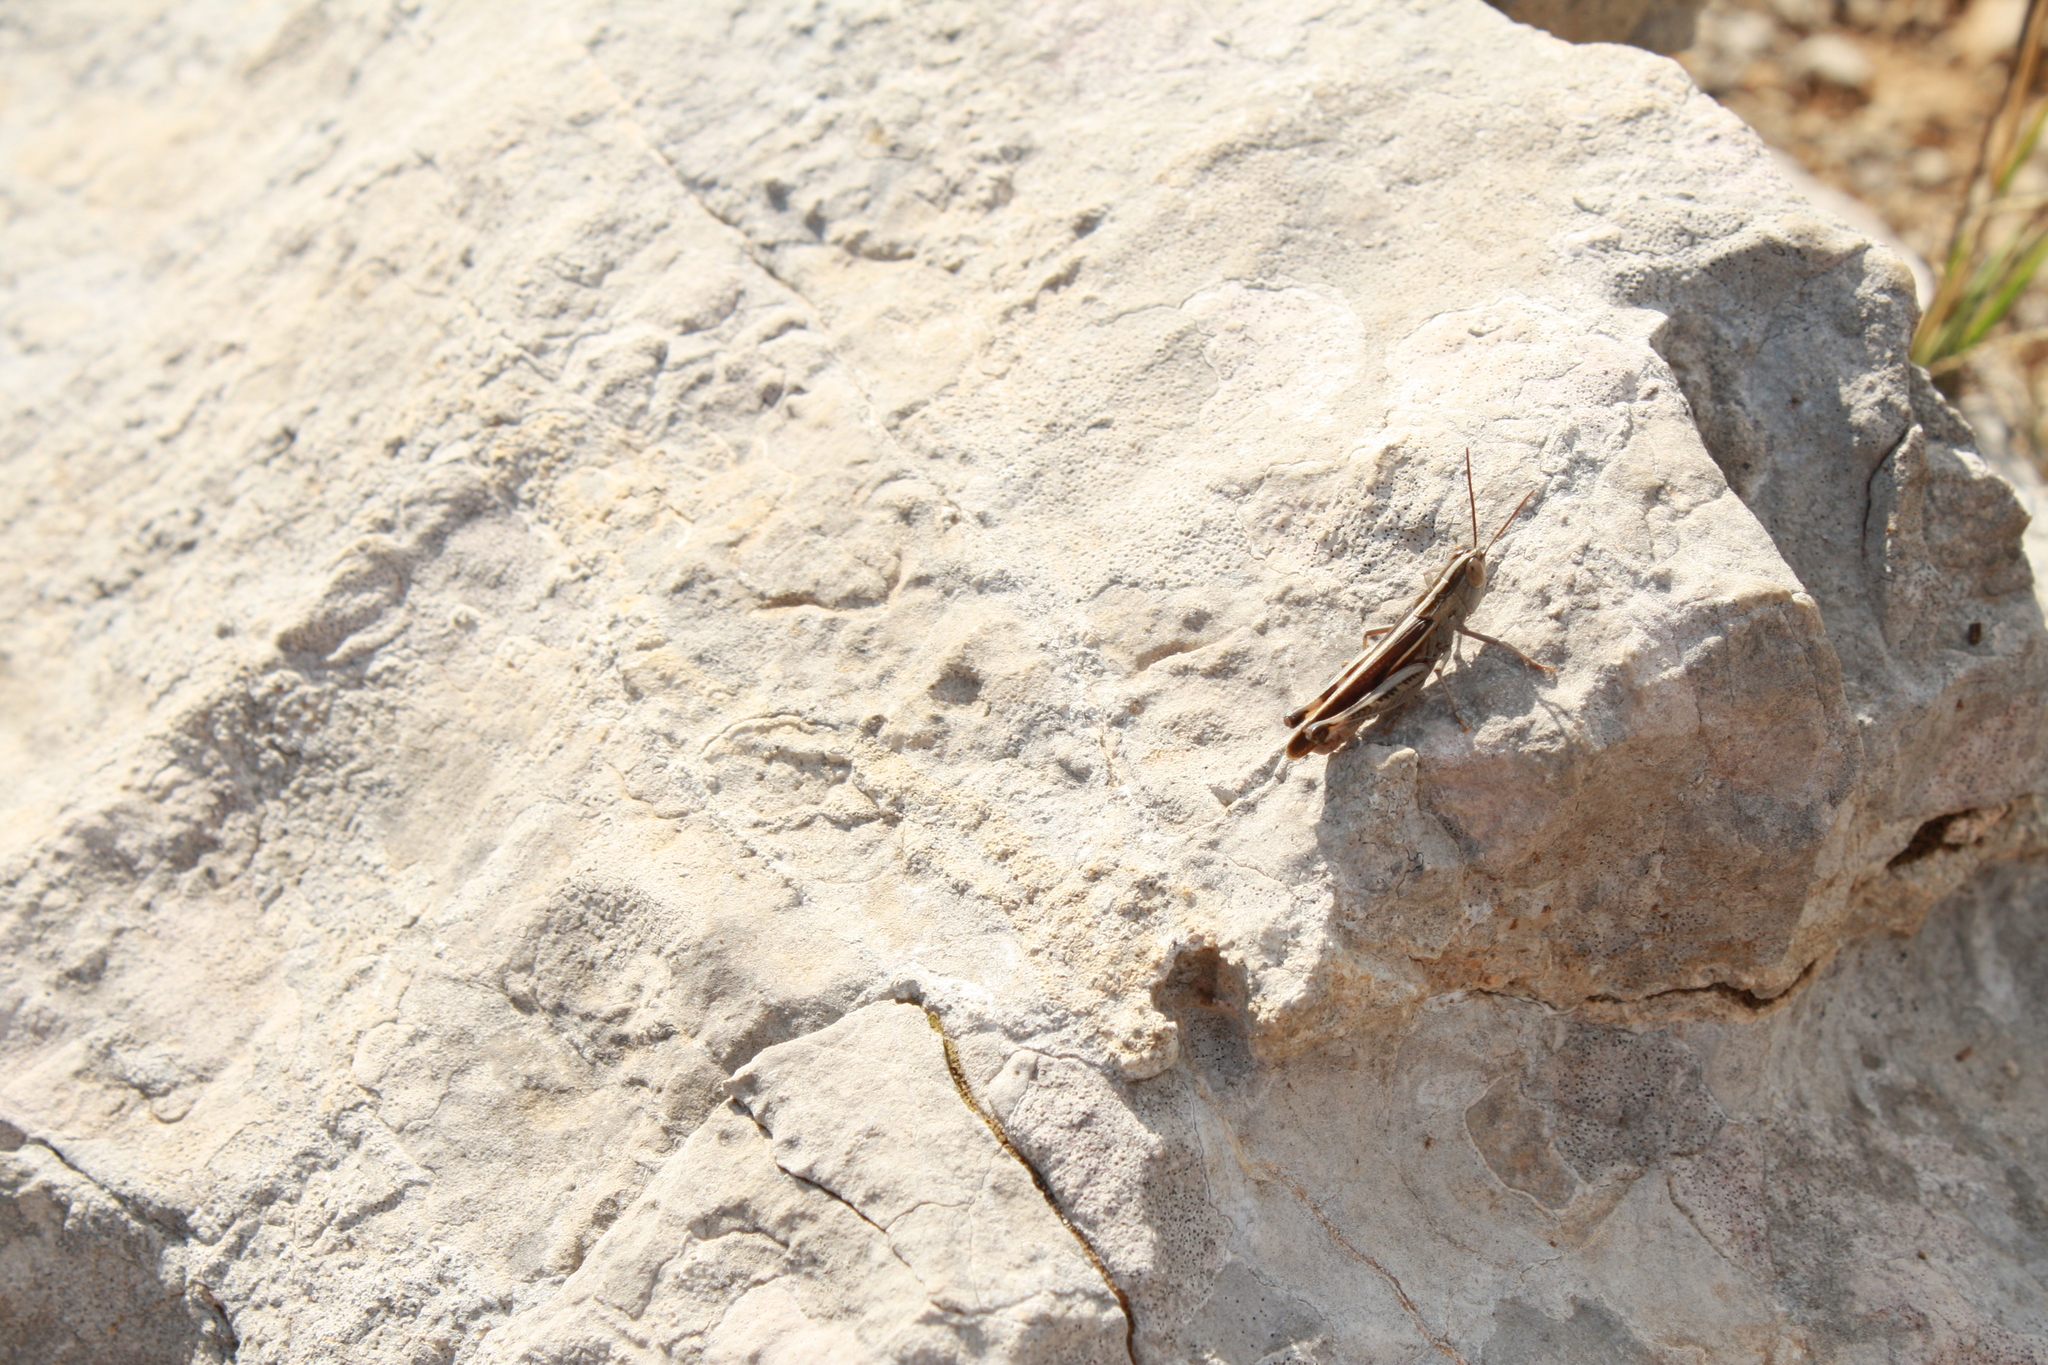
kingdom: Animalia
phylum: Arthropoda
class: Insecta
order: Orthoptera
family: Acrididae
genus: Ramburiella
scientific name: Ramburiella hispanica
